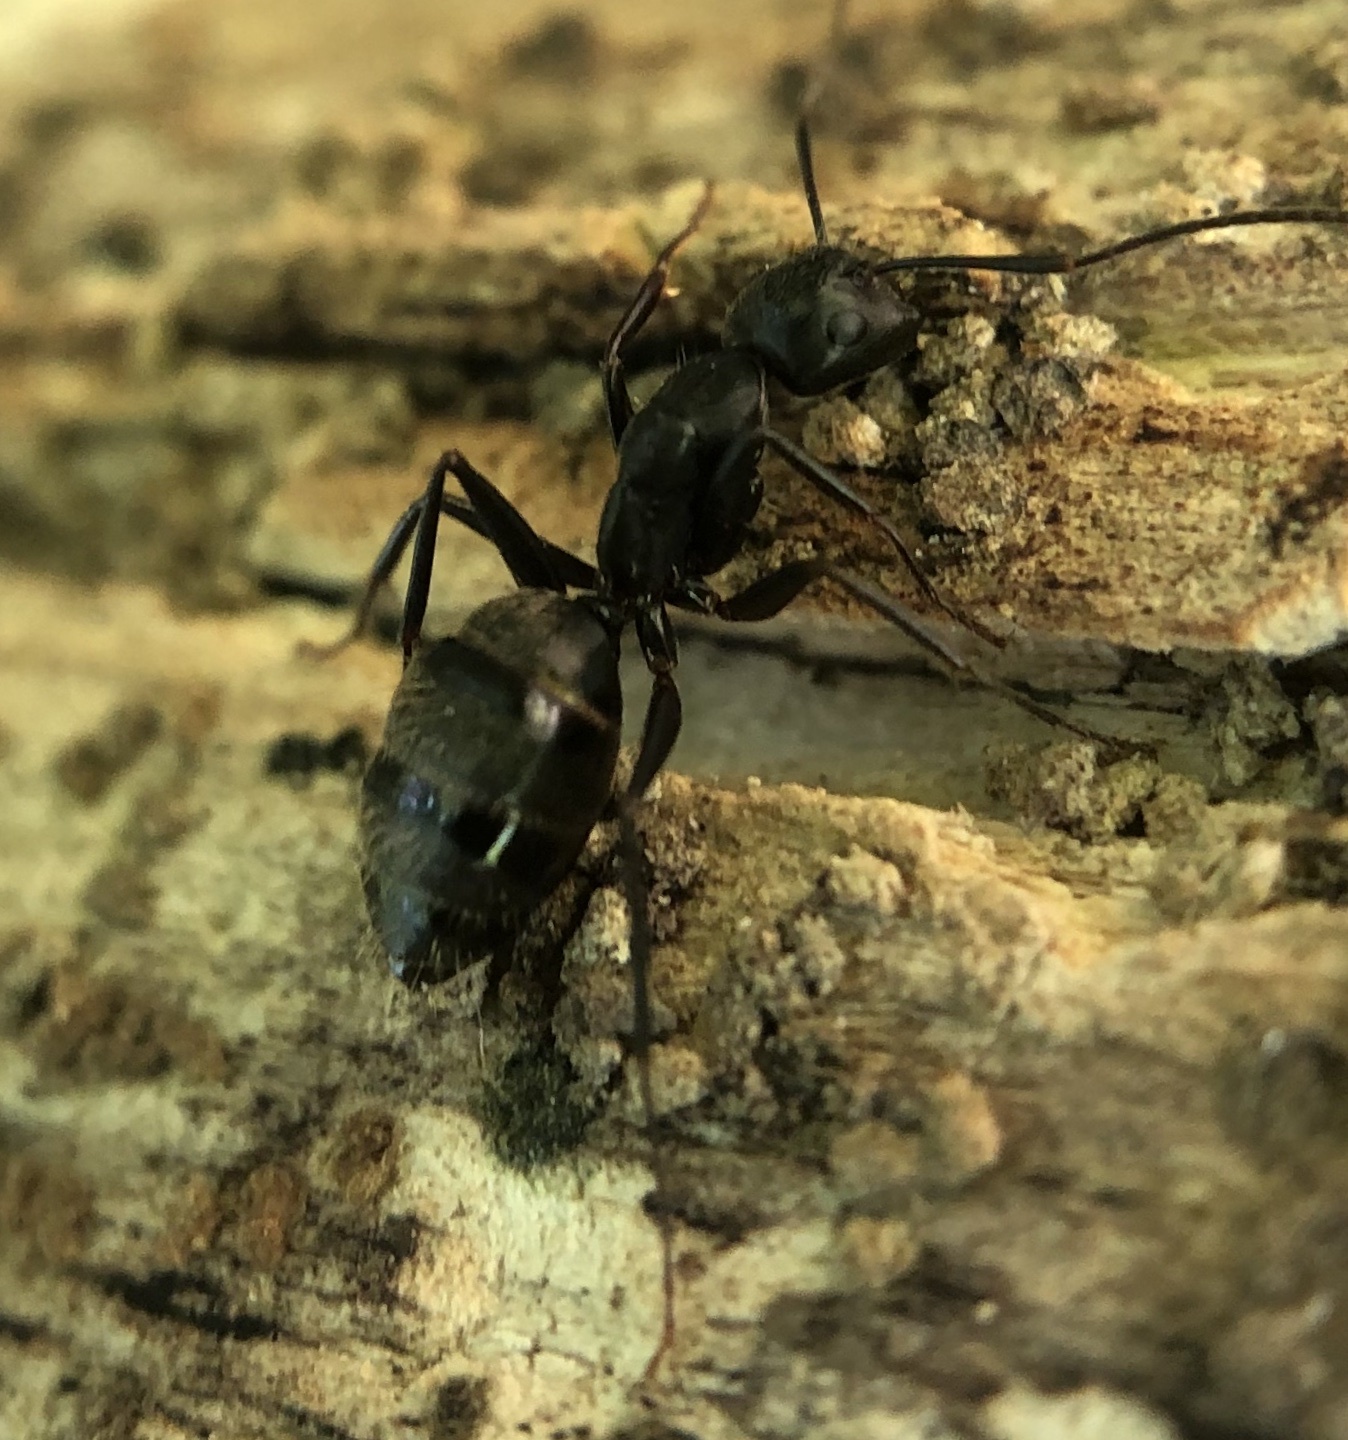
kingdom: Animalia
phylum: Arthropoda
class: Insecta
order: Hymenoptera
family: Formicidae
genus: Camponotus
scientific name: Camponotus pennsylvanicus
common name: Black carpenter ant
